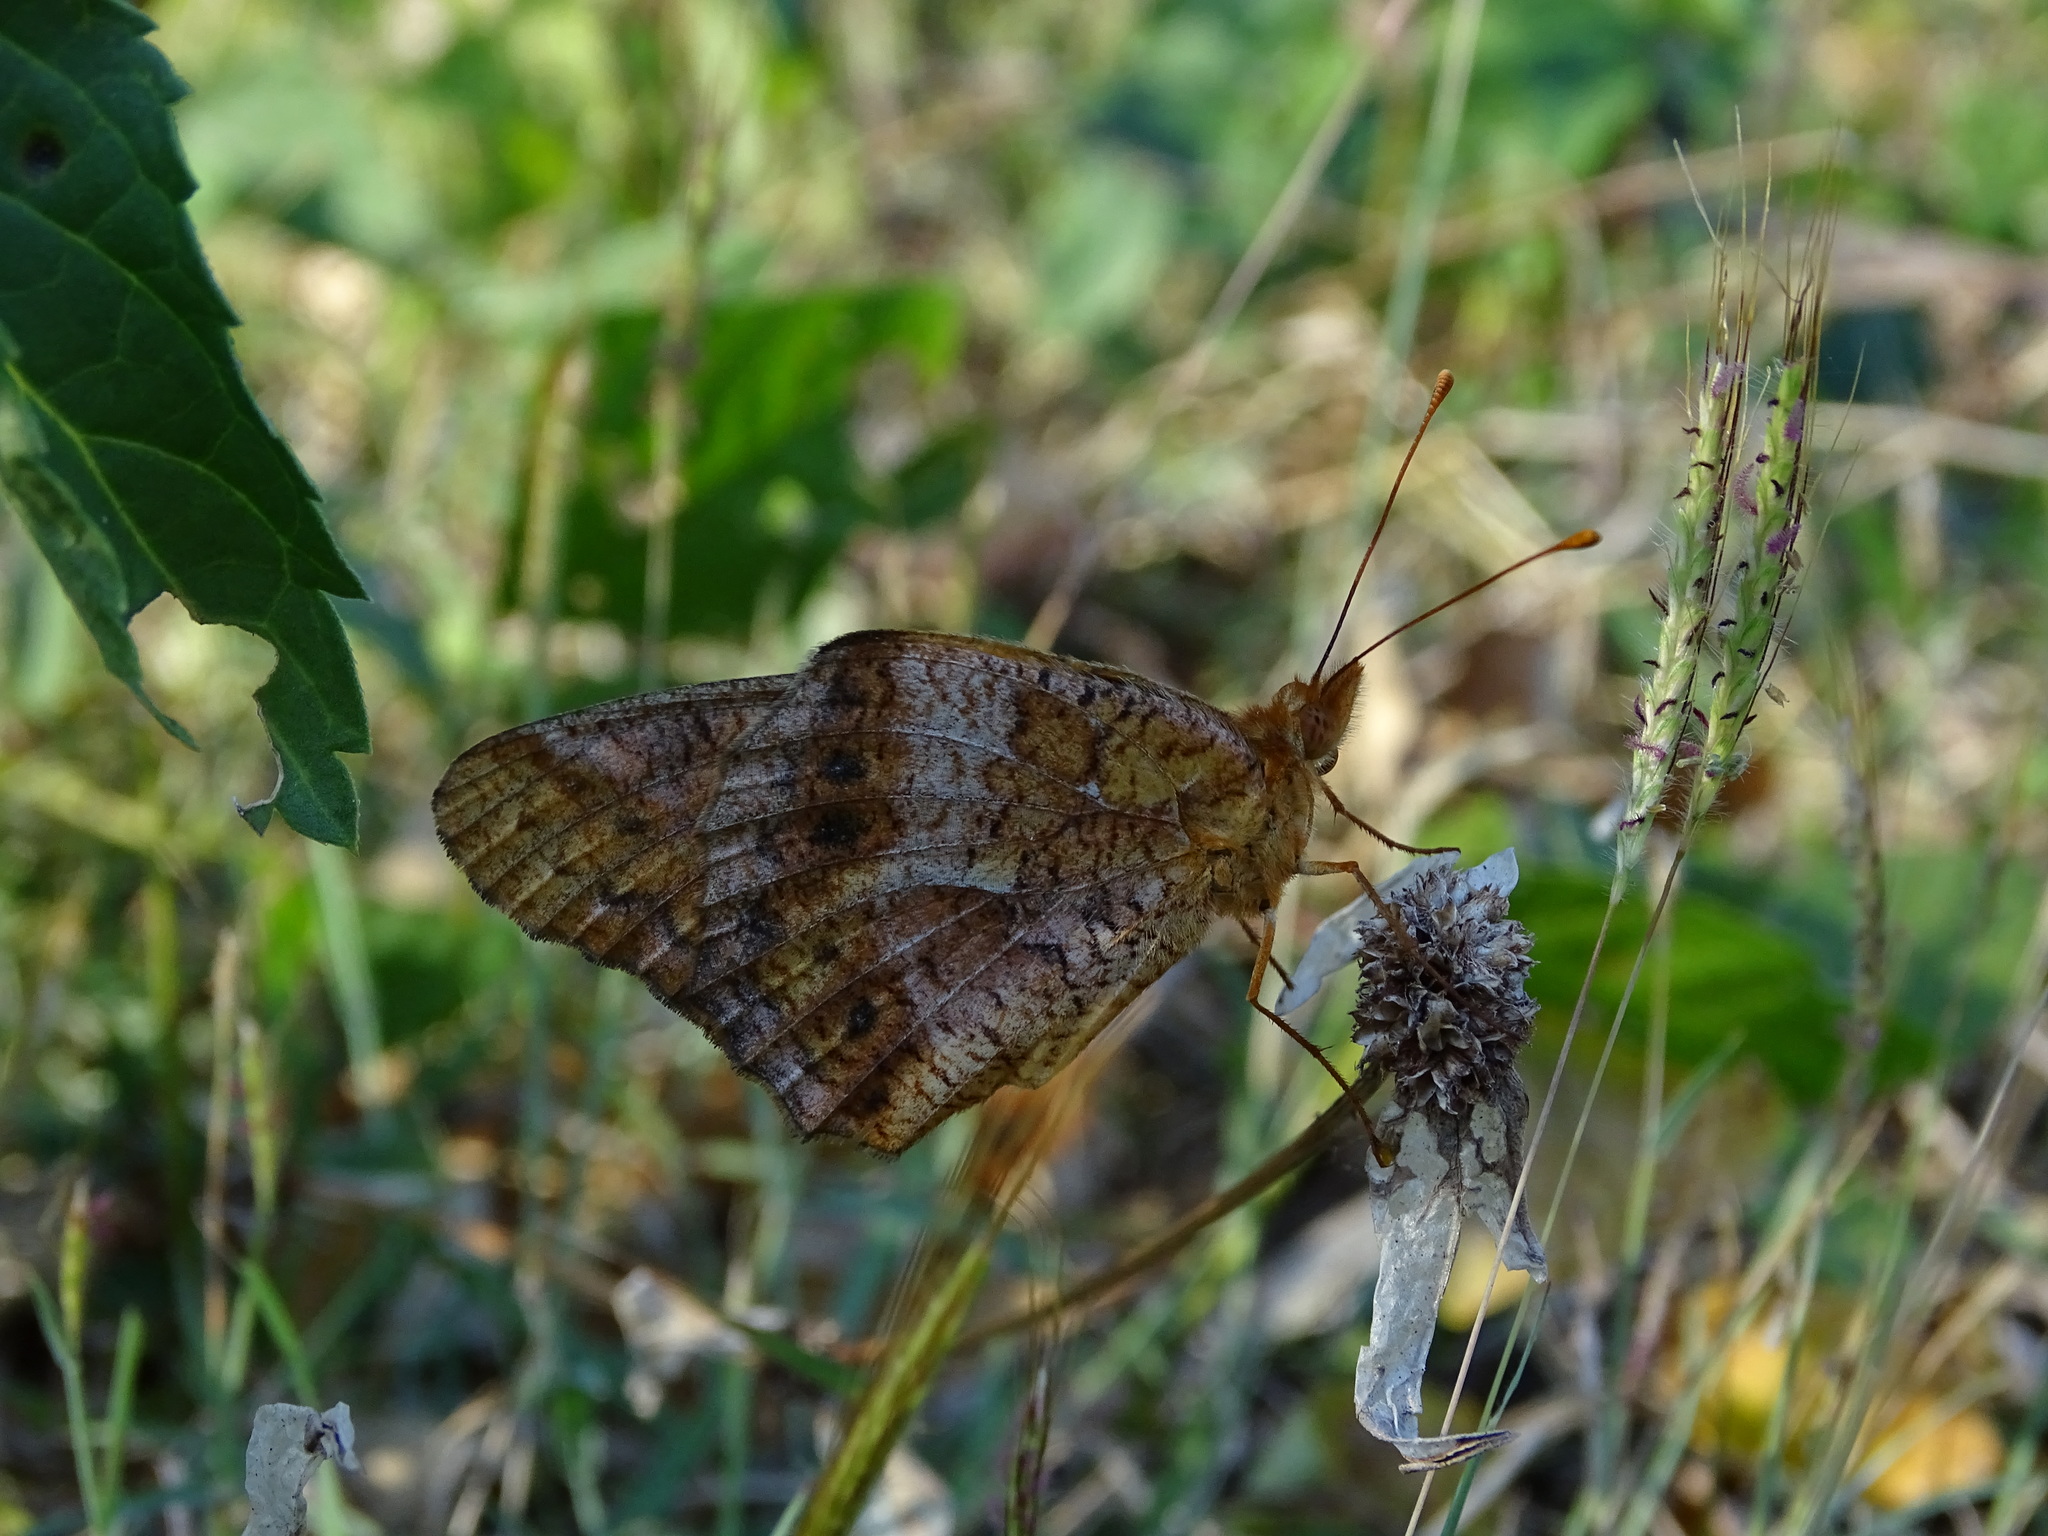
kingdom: Animalia
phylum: Arthropoda
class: Insecta
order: Lepidoptera
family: Nymphalidae
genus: Euptoieta
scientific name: Euptoieta hegesia
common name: Mexican fritillary
